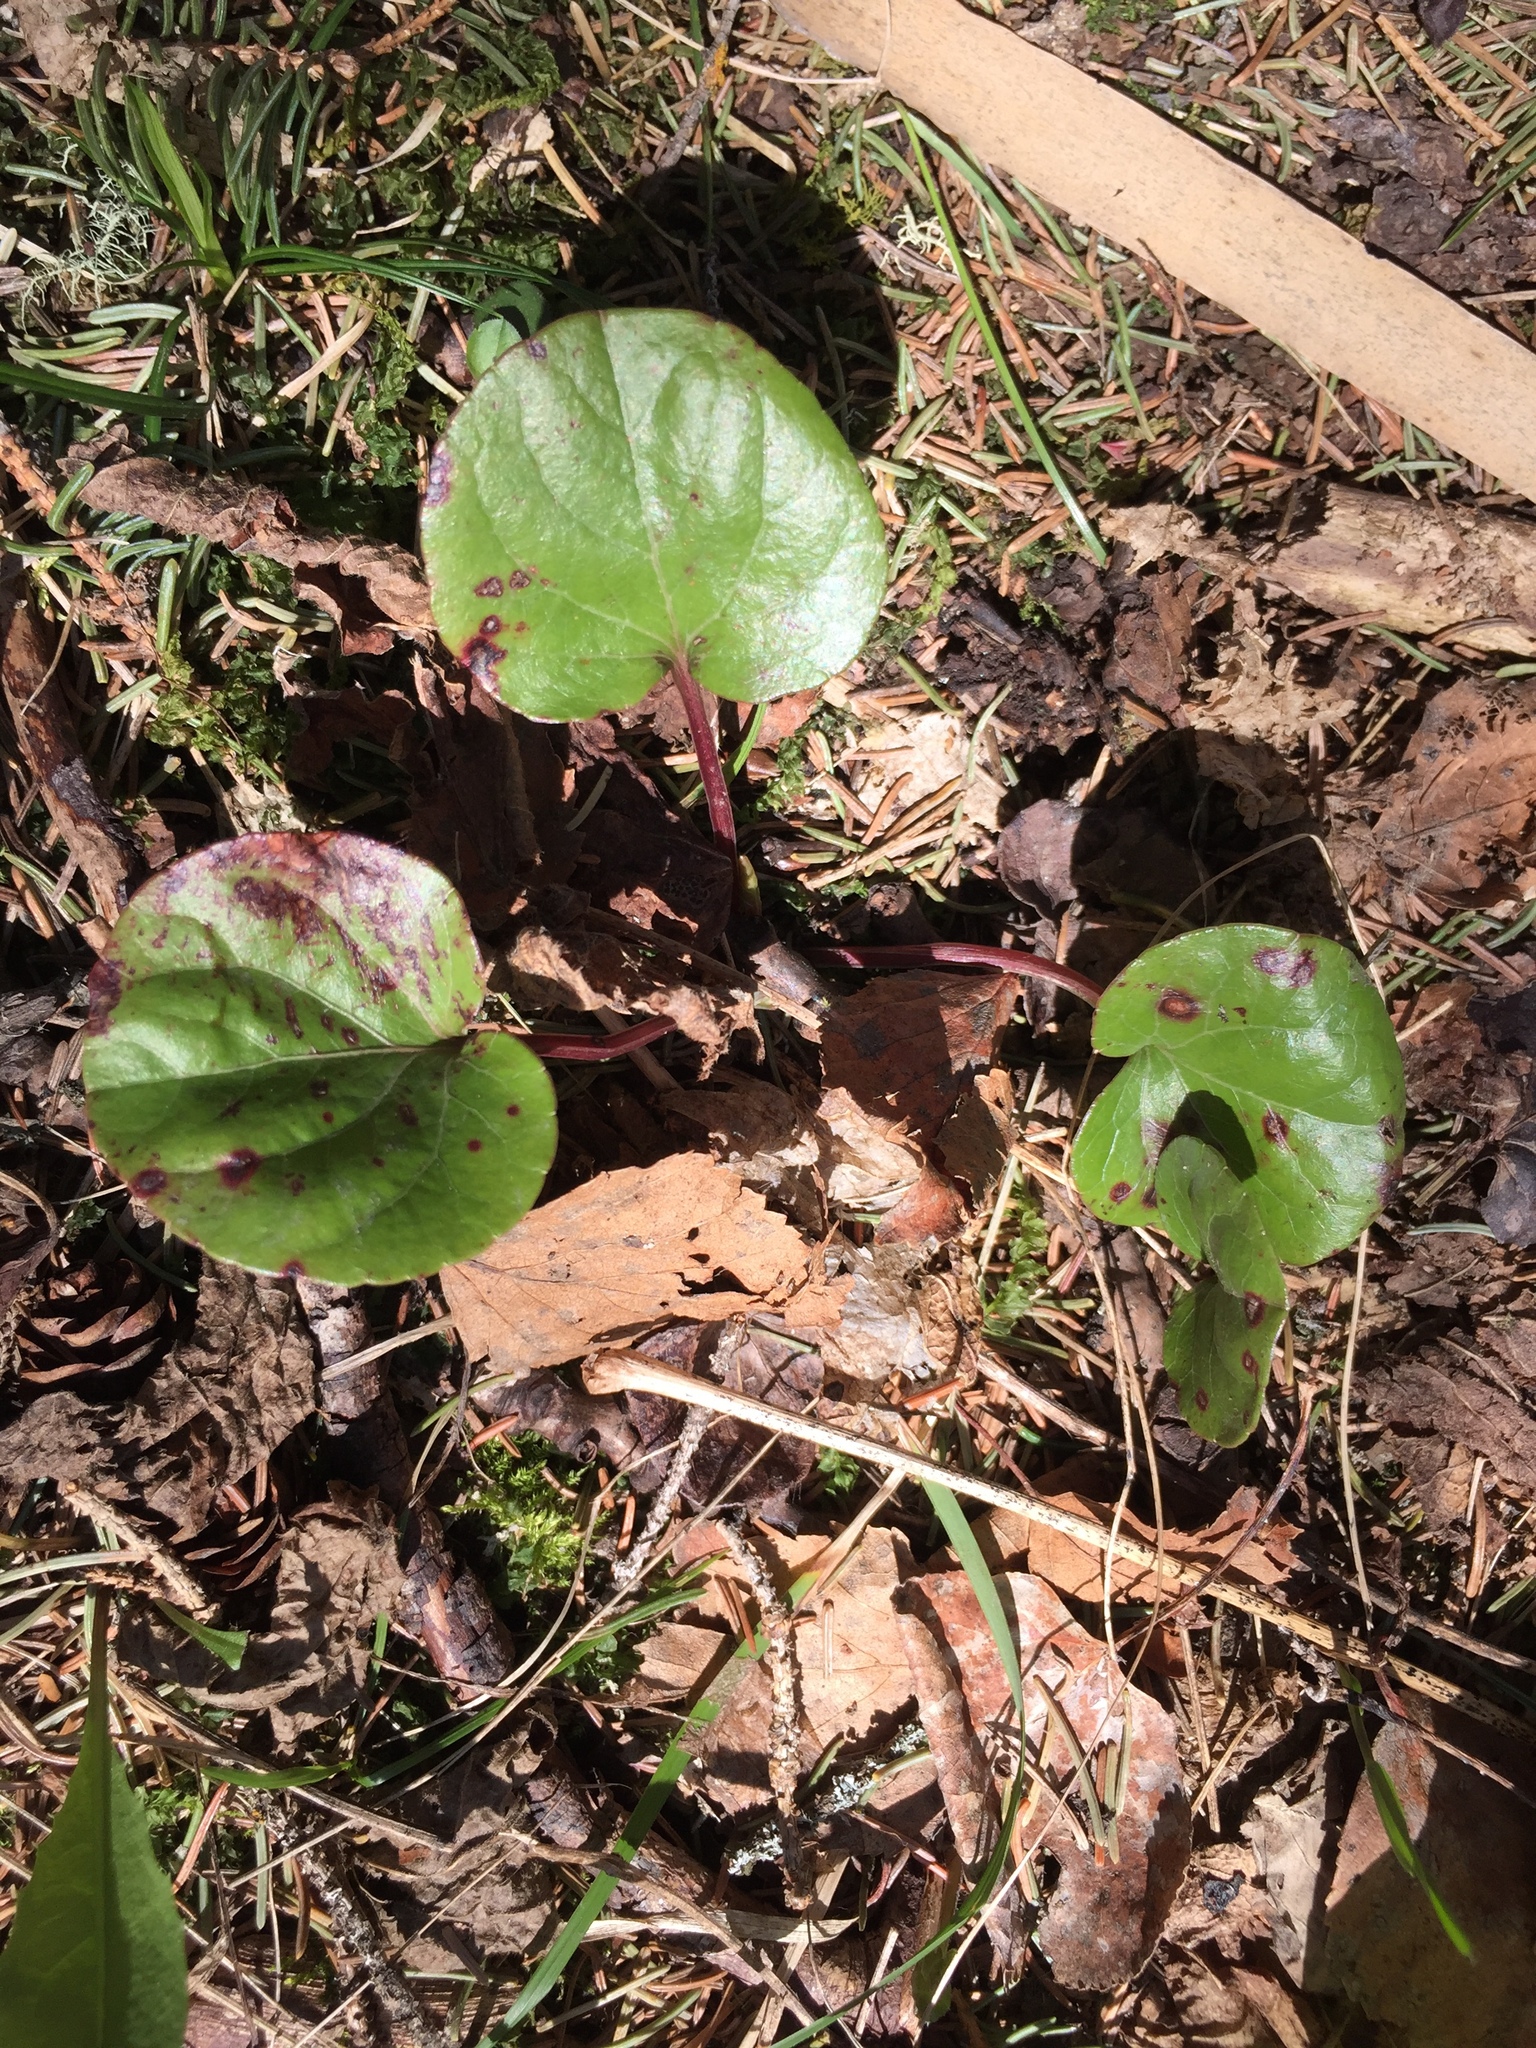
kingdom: Plantae
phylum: Tracheophyta
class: Magnoliopsida
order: Ericales
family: Ericaceae
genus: Pyrola
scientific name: Pyrola asarifolia
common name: Bog wintergreen
